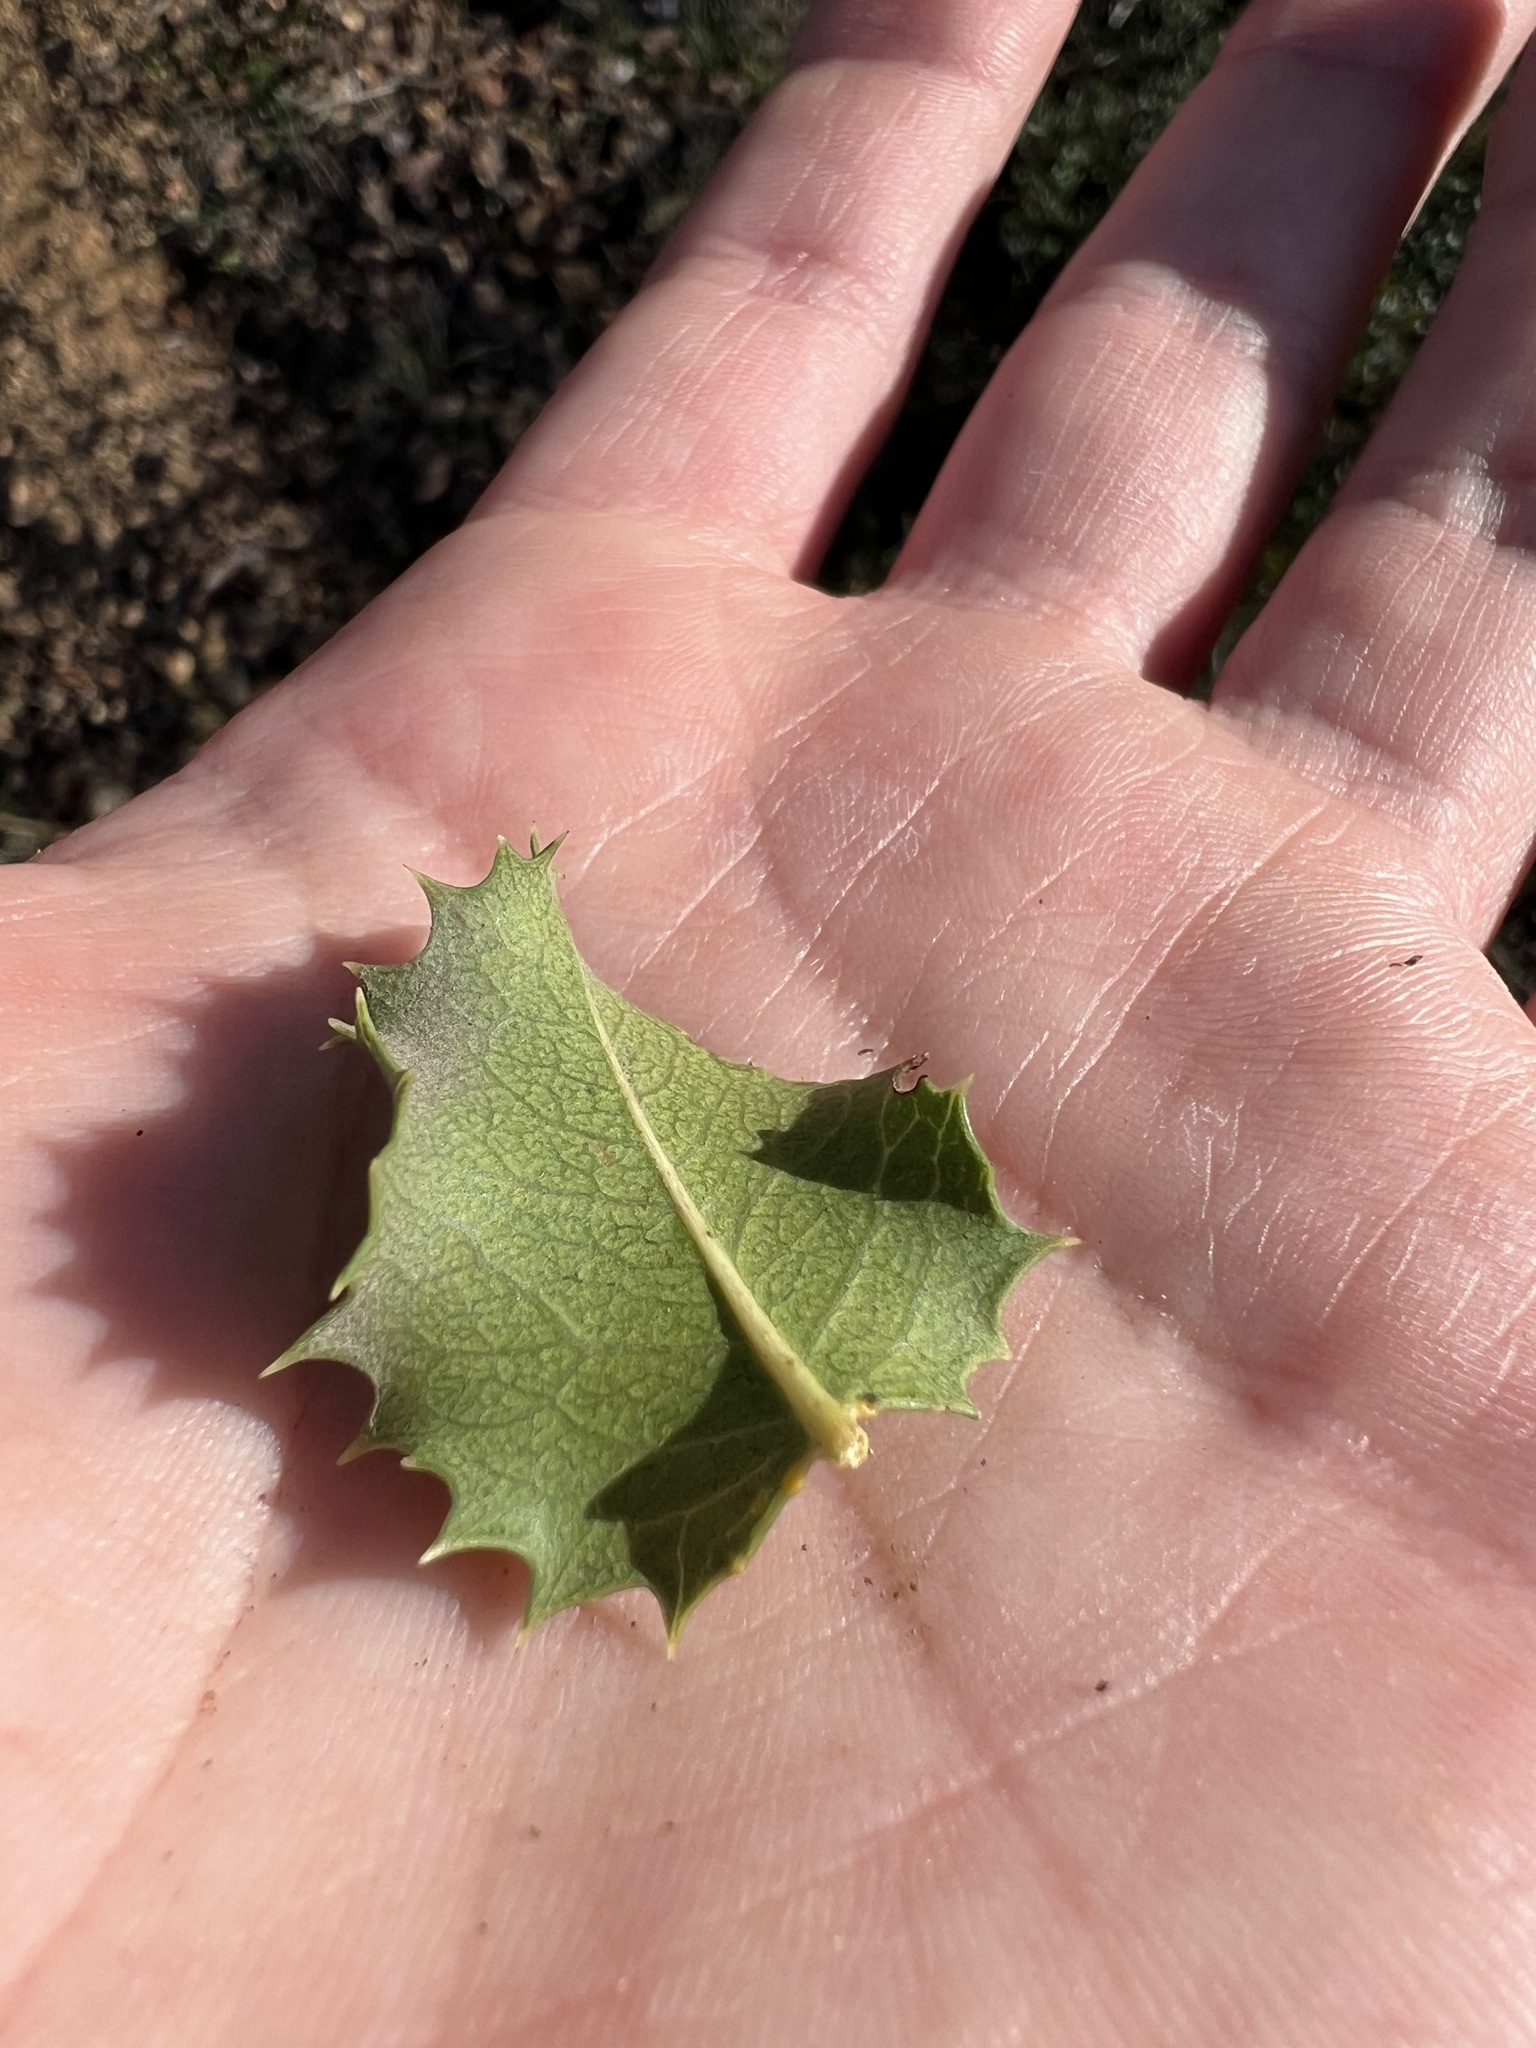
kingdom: Plantae
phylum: Tracheophyta
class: Magnoliopsida
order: Rosales
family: Rosaceae
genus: Prunus
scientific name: Prunus ilicifolia
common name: Hollyleaf cherry
